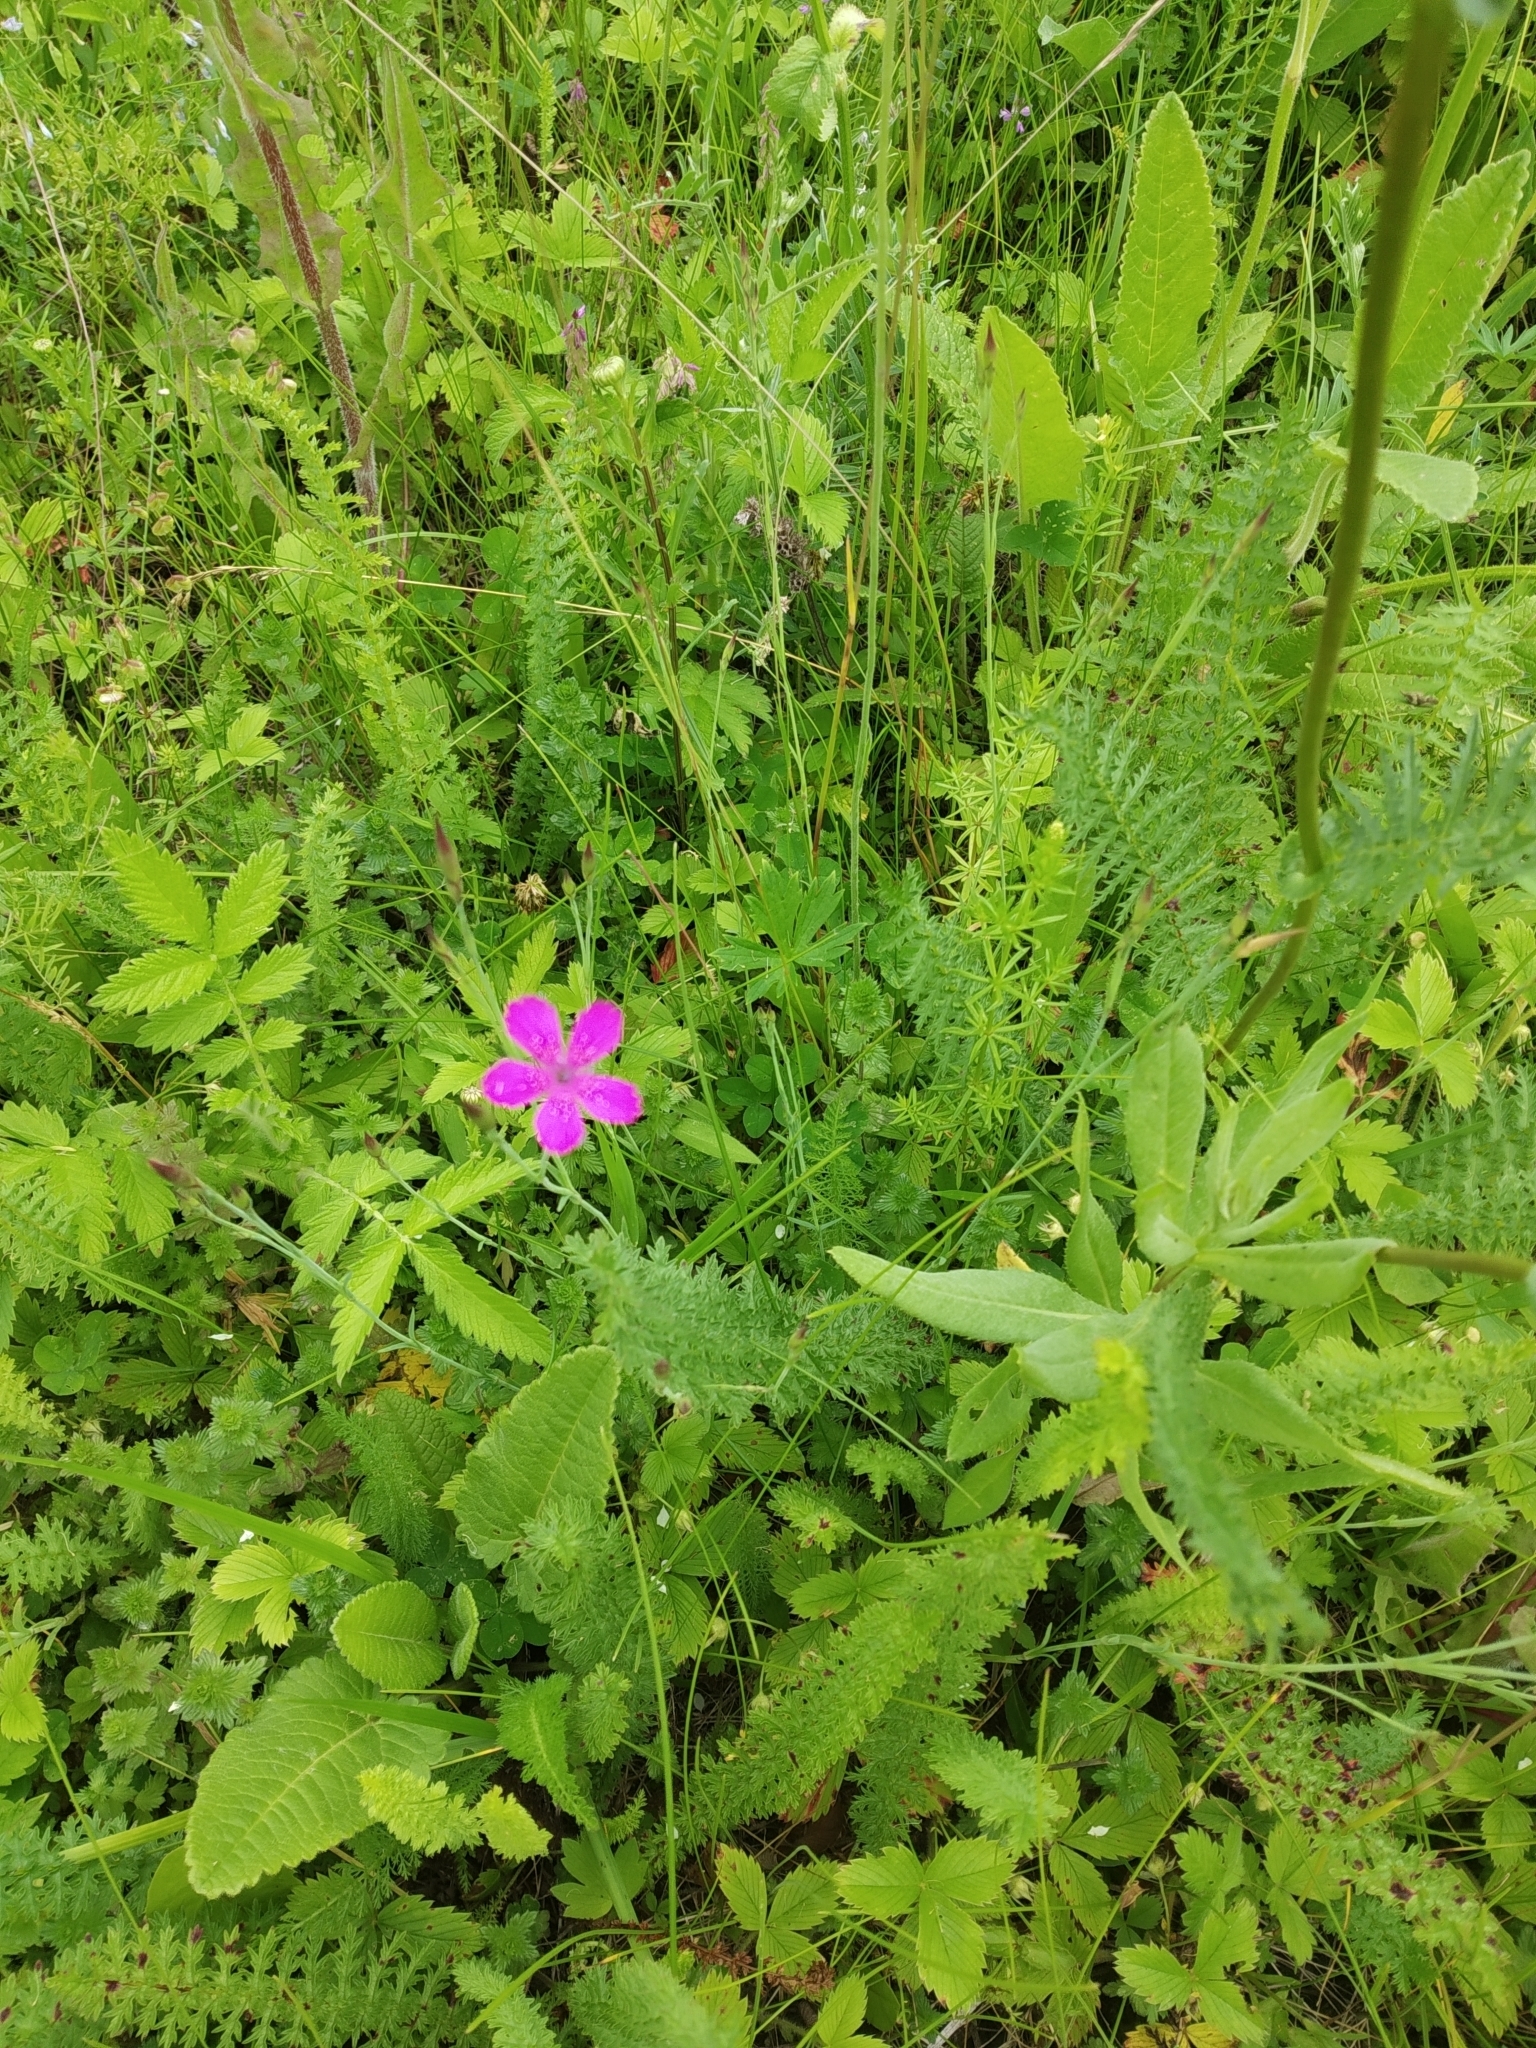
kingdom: Plantae
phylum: Tracheophyta
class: Magnoliopsida
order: Caryophyllales
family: Caryophyllaceae
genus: Dianthus
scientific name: Dianthus deltoides
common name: Maiden pink
